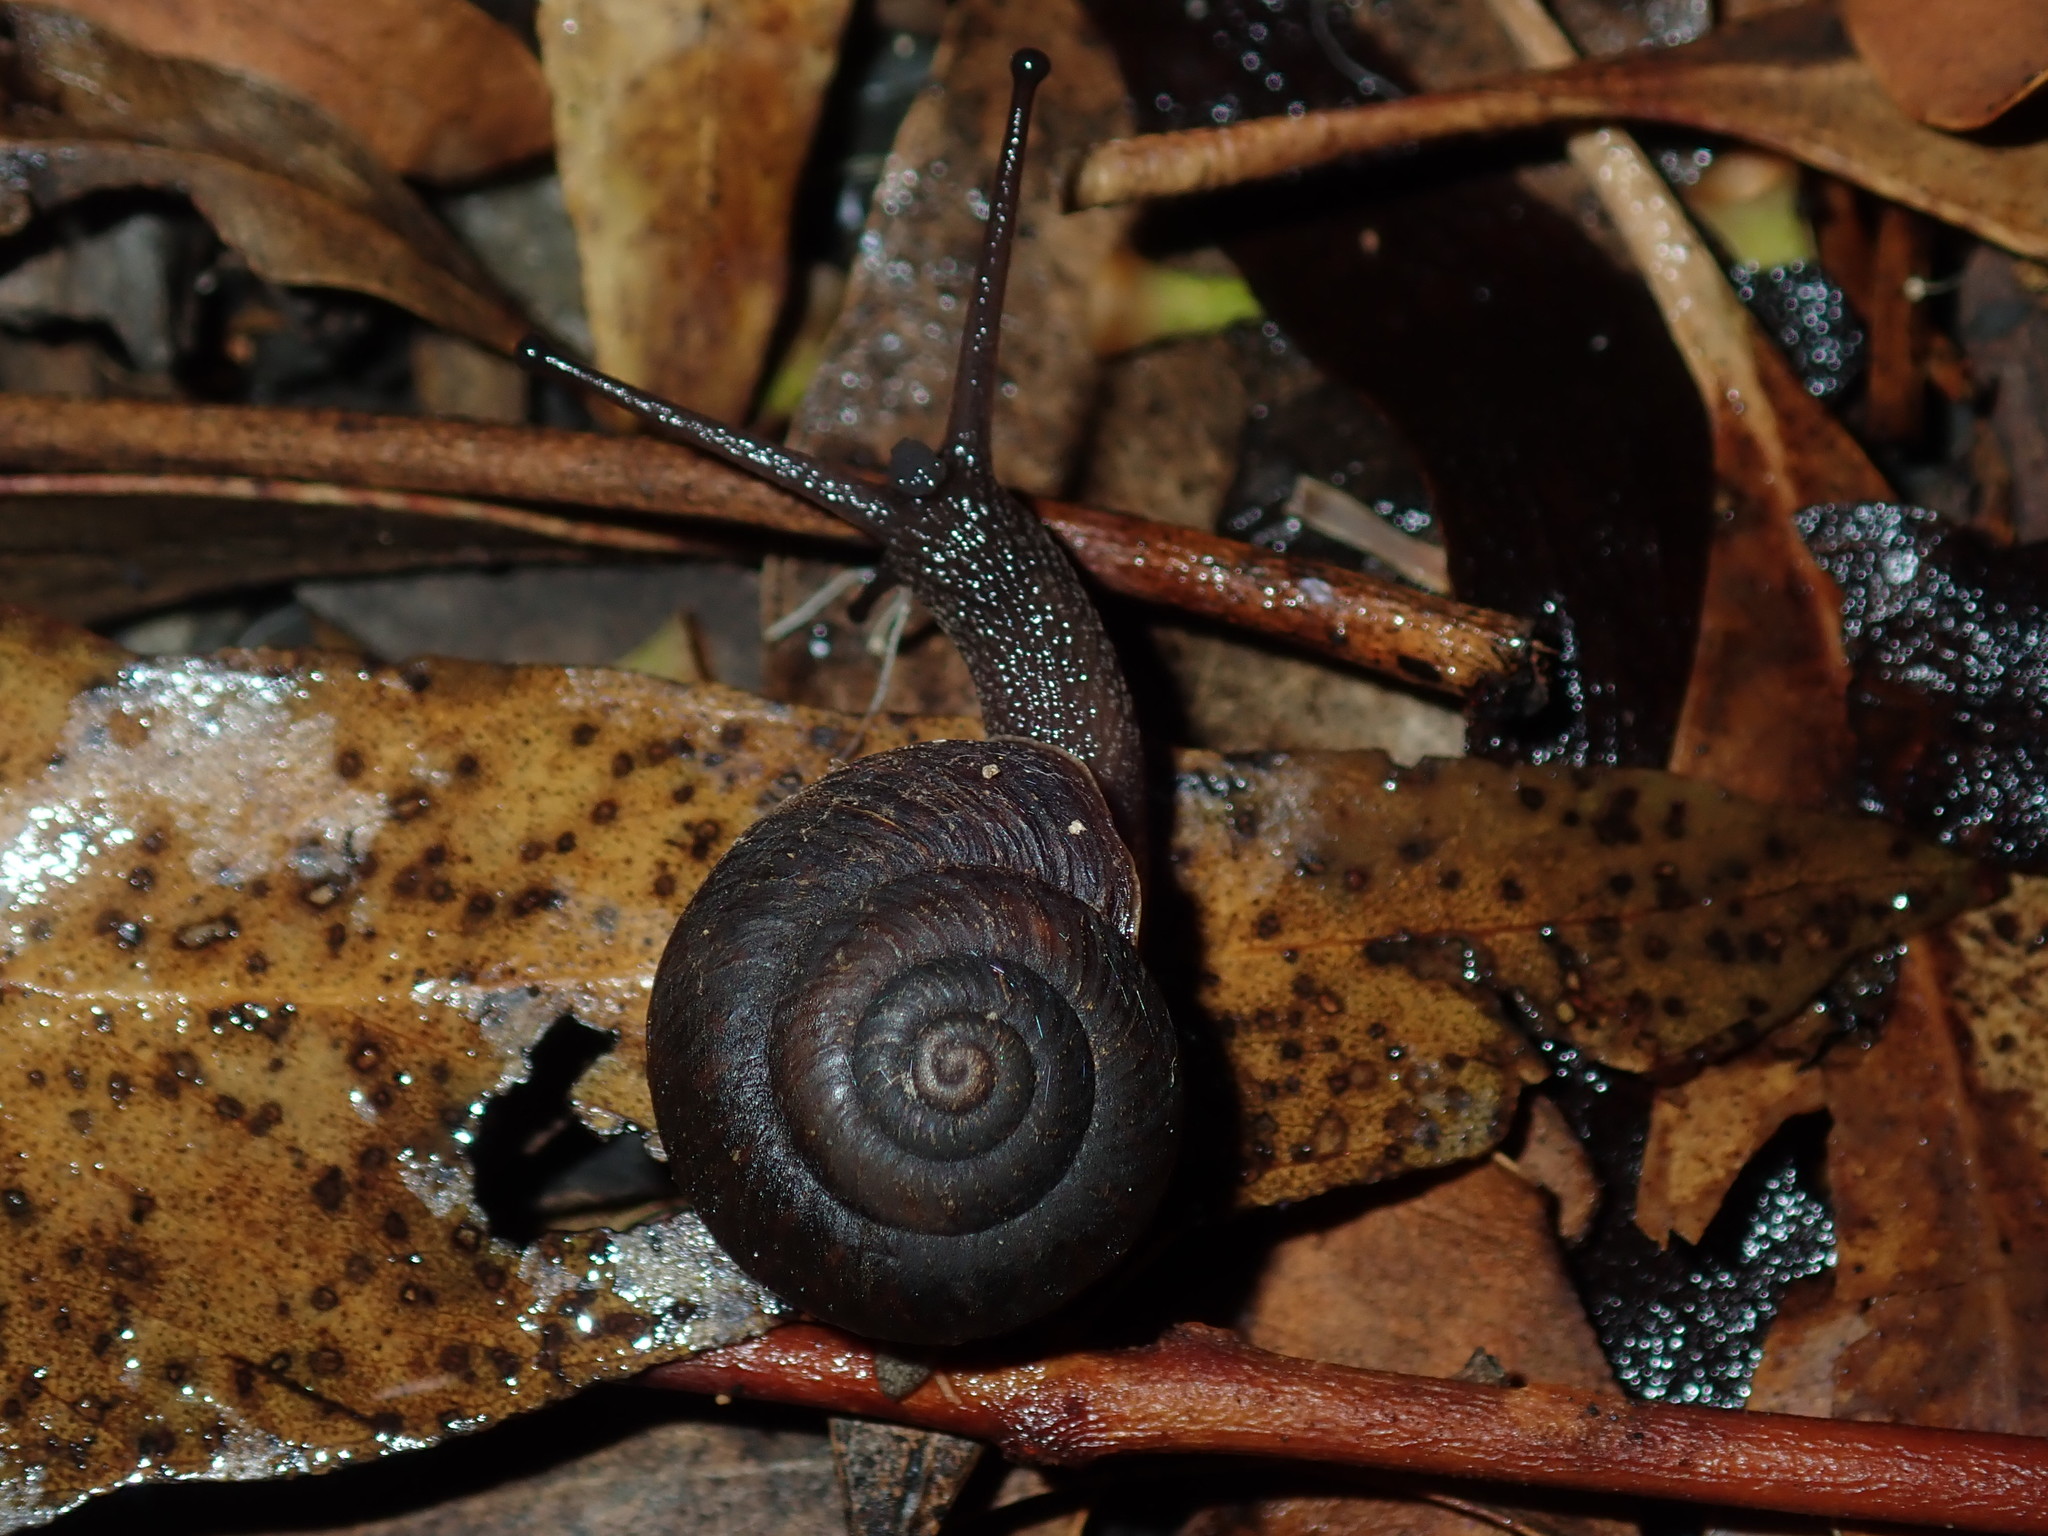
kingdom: Animalia
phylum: Mollusca
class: Gastropoda
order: Stylommatophora
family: Camaenidae
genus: Sauroconcha
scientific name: Sauroconcha sheai
